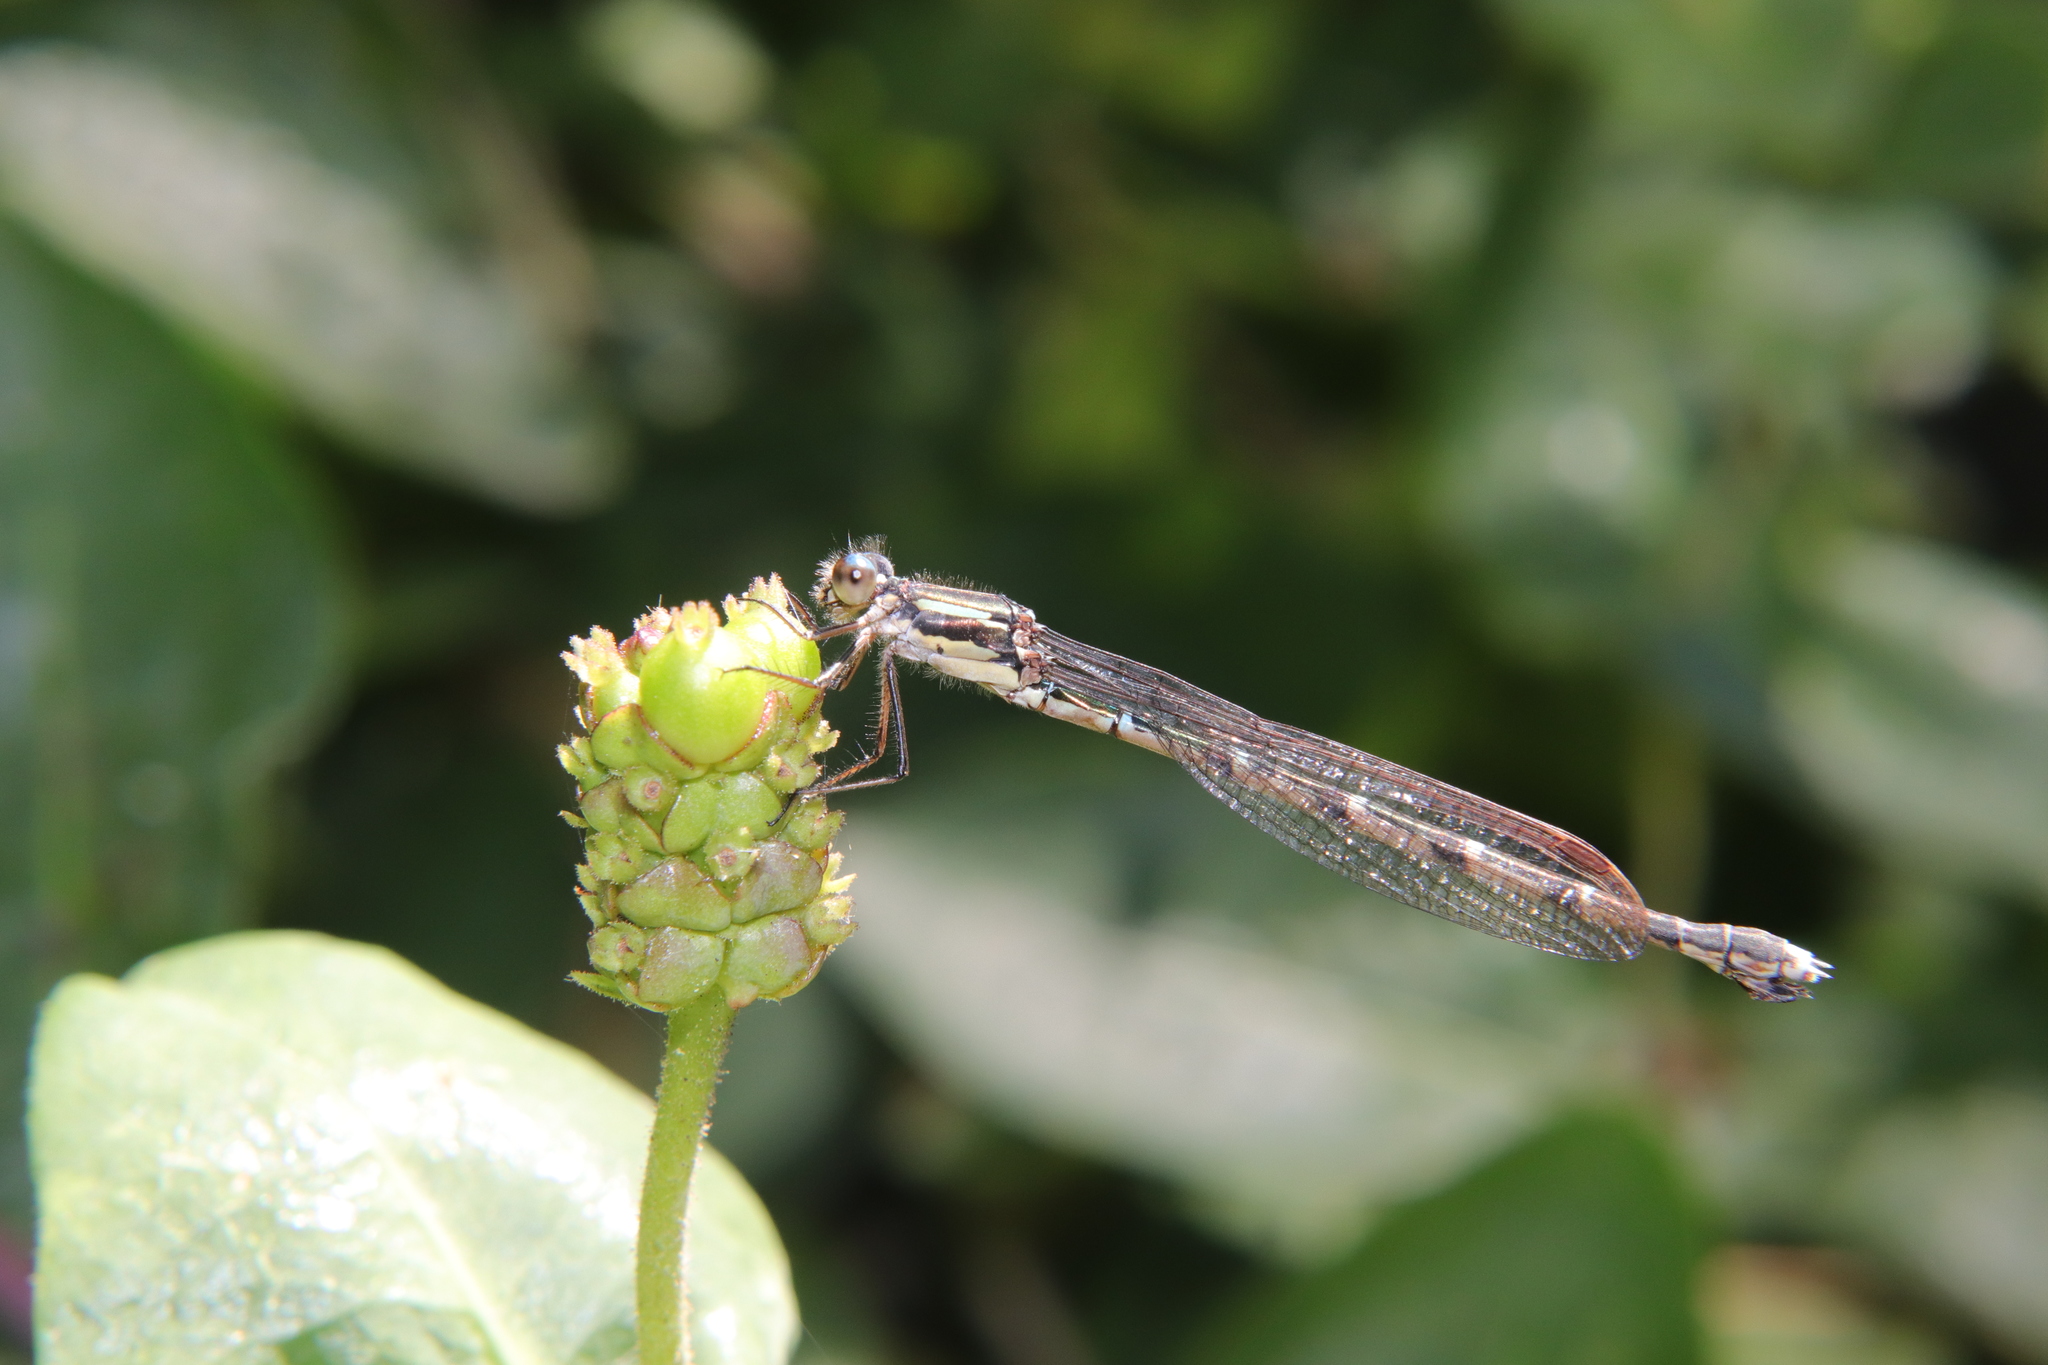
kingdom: Animalia
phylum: Arthropoda
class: Insecta
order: Odonata
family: Lestidae
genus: Austrolestes
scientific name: Austrolestes colensonis
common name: Blue damselfly
